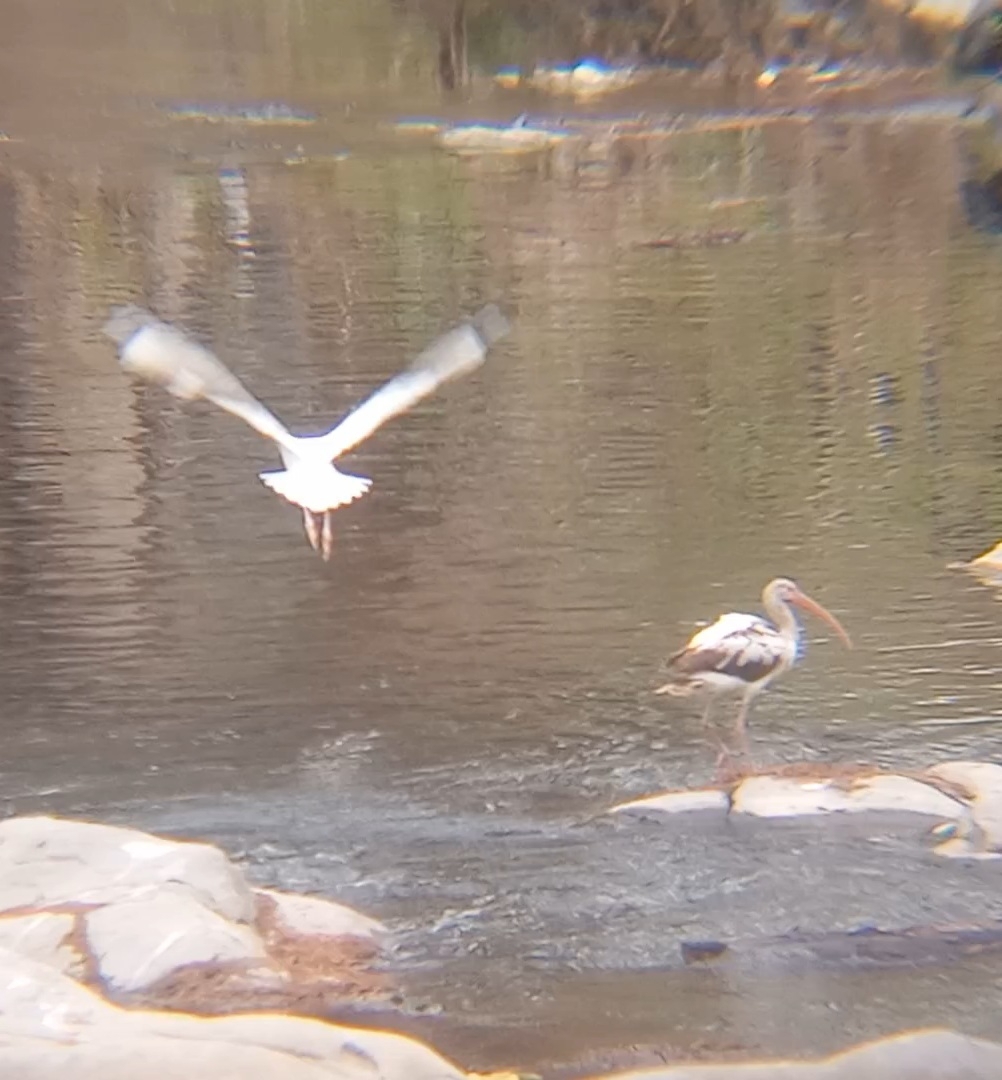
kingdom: Animalia
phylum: Chordata
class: Aves
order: Pelecaniformes
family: Threskiornithidae
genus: Eudocimus
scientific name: Eudocimus albus
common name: White ibis
